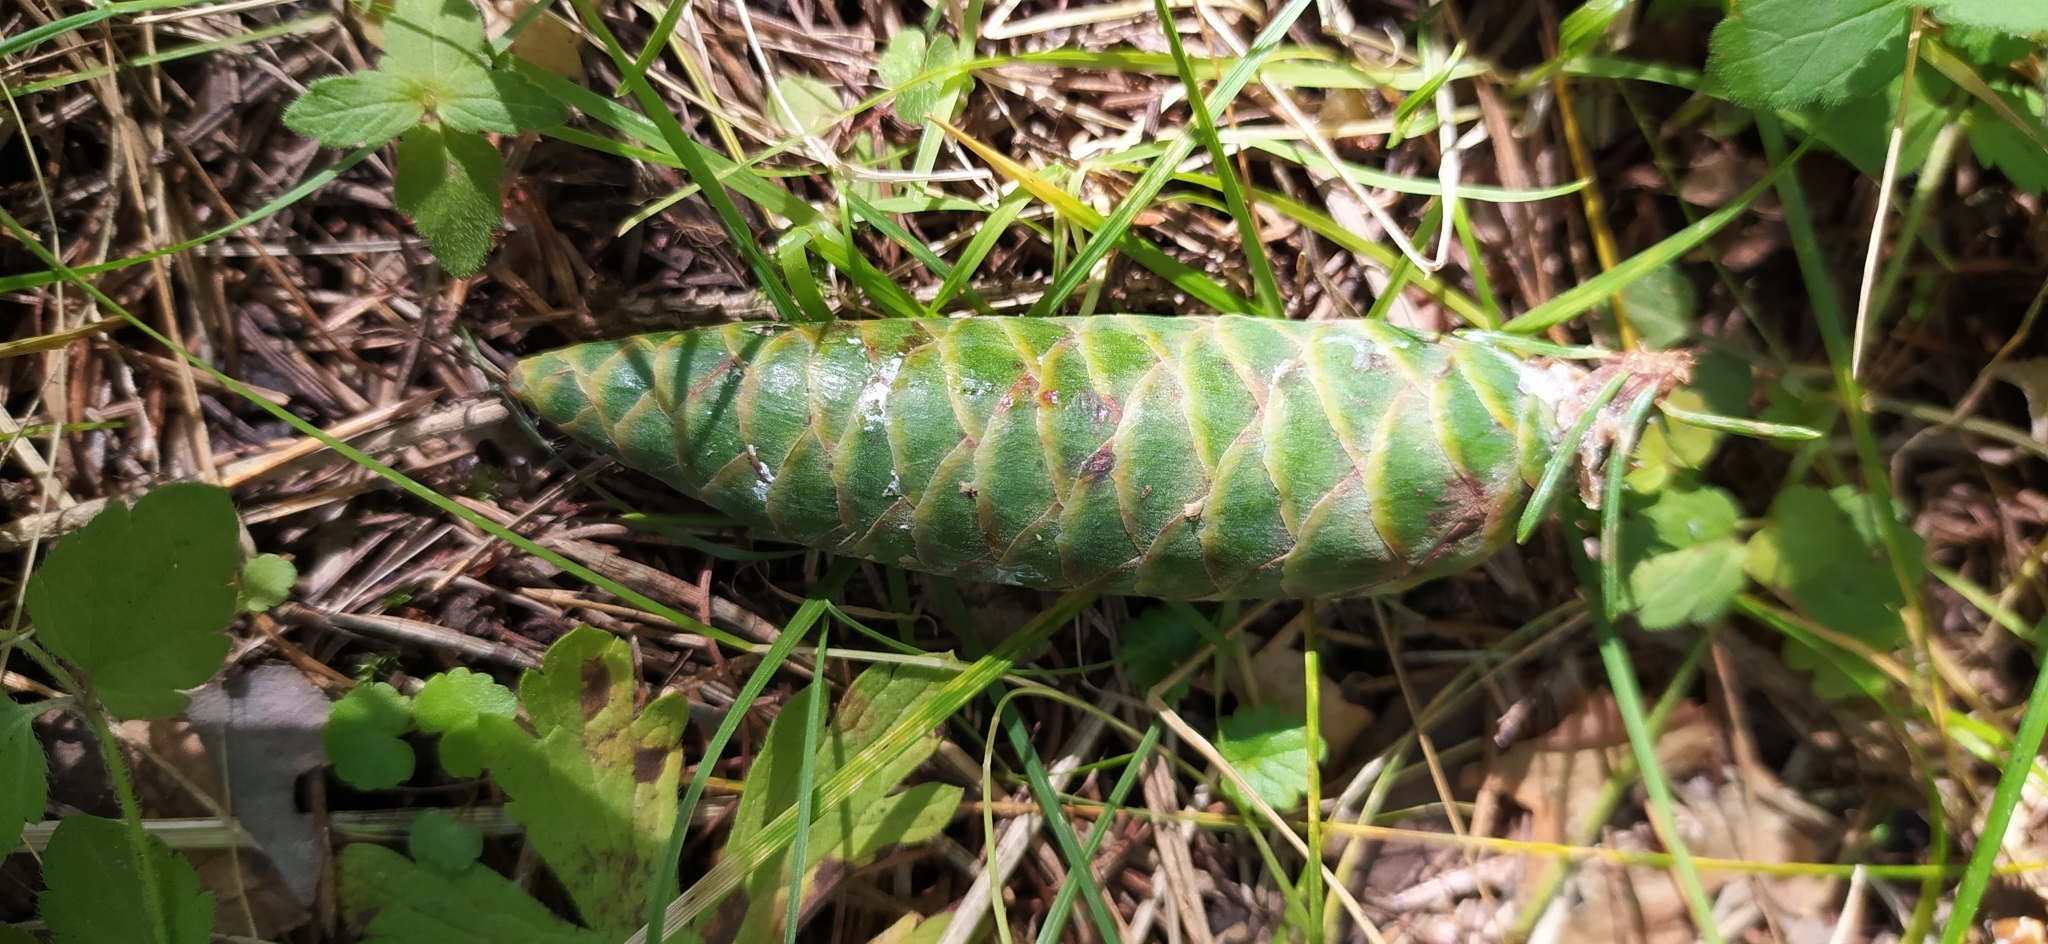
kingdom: Plantae
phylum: Tracheophyta
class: Pinopsida
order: Pinales
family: Pinaceae
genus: Picea
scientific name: Picea obovata
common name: Siberian spruce
